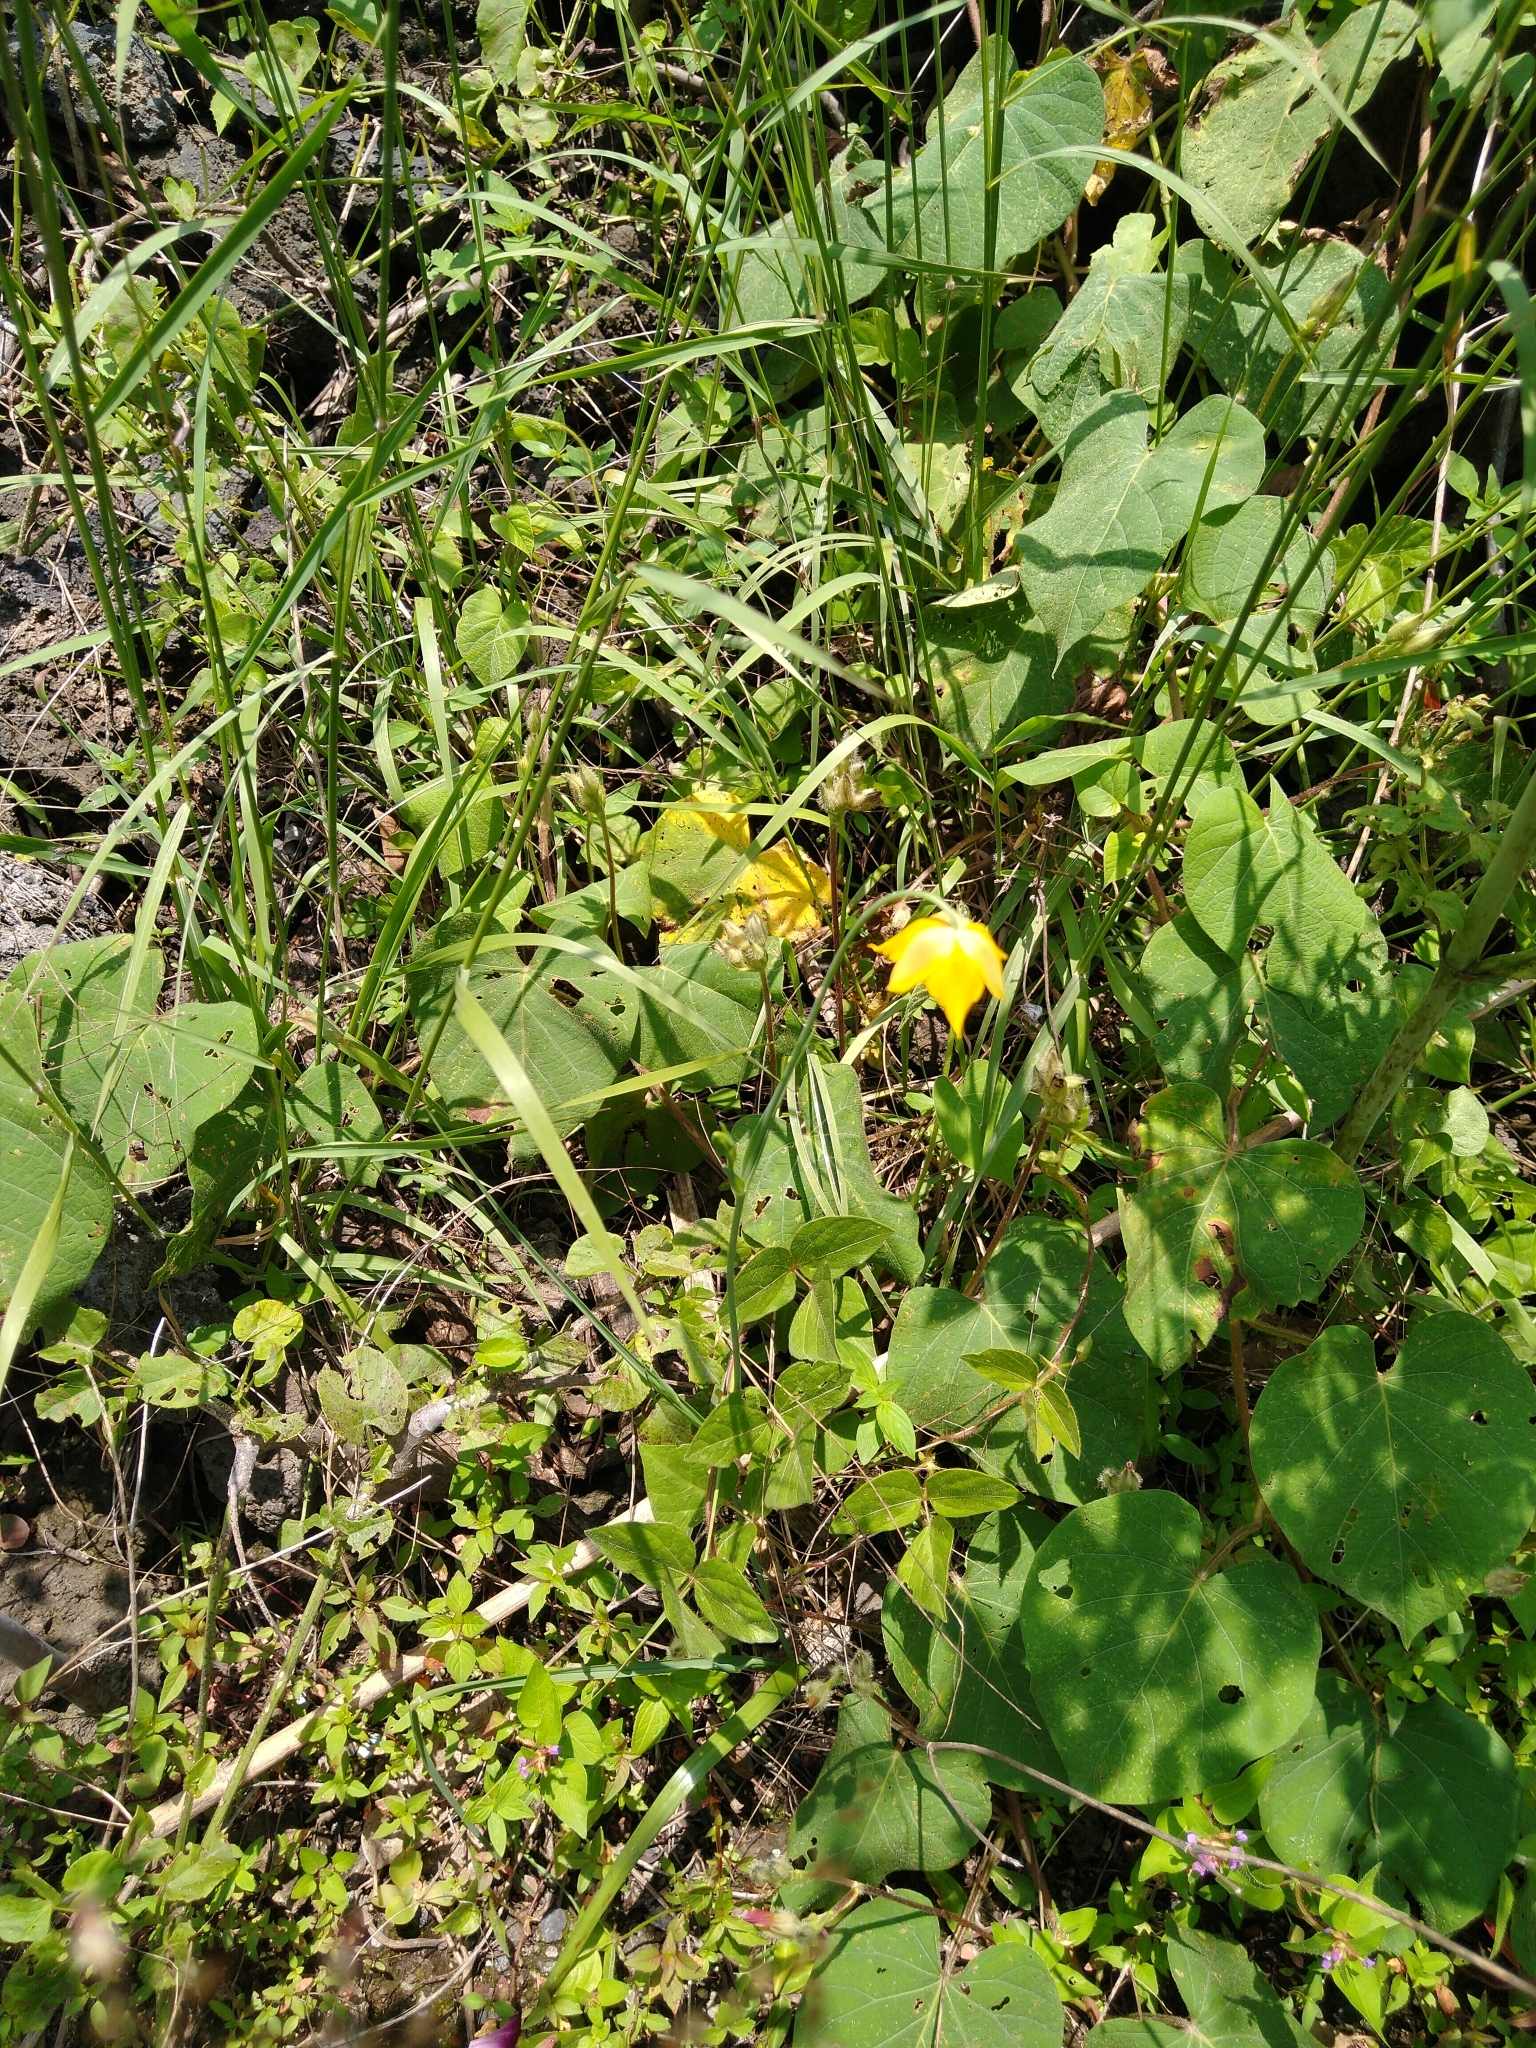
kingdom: Plantae
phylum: Tracheophyta
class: Liliopsida
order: Liliales
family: Liliaceae
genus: Calochortus
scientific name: Calochortus barbatus
